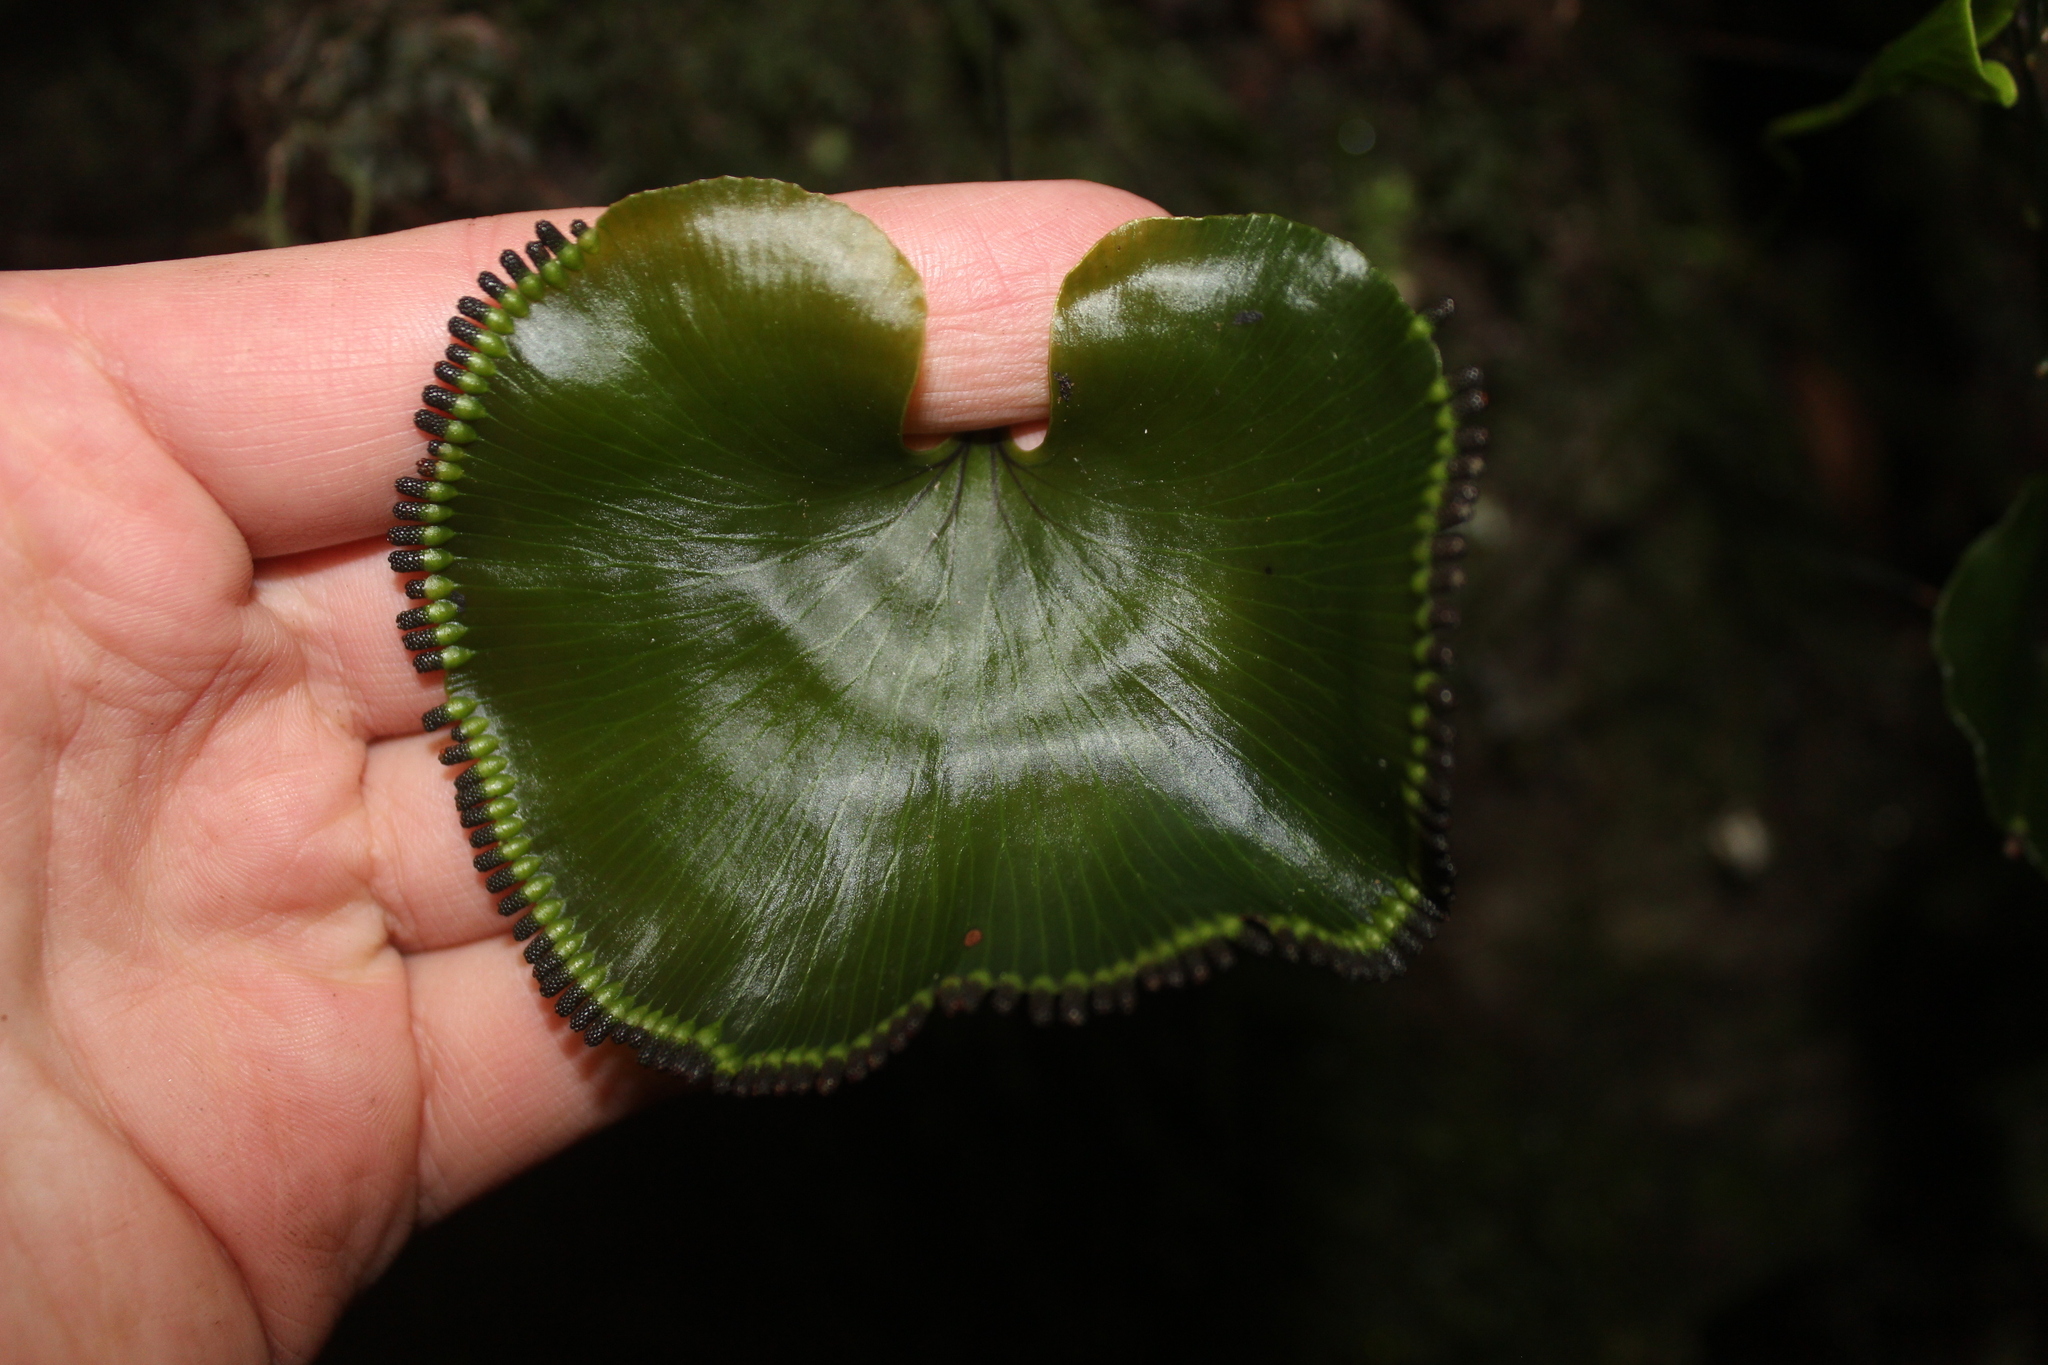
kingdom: Plantae
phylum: Tracheophyta
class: Polypodiopsida
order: Hymenophyllales
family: Hymenophyllaceae
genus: Hymenophyllum
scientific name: Hymenophyllum nephrophyllum
